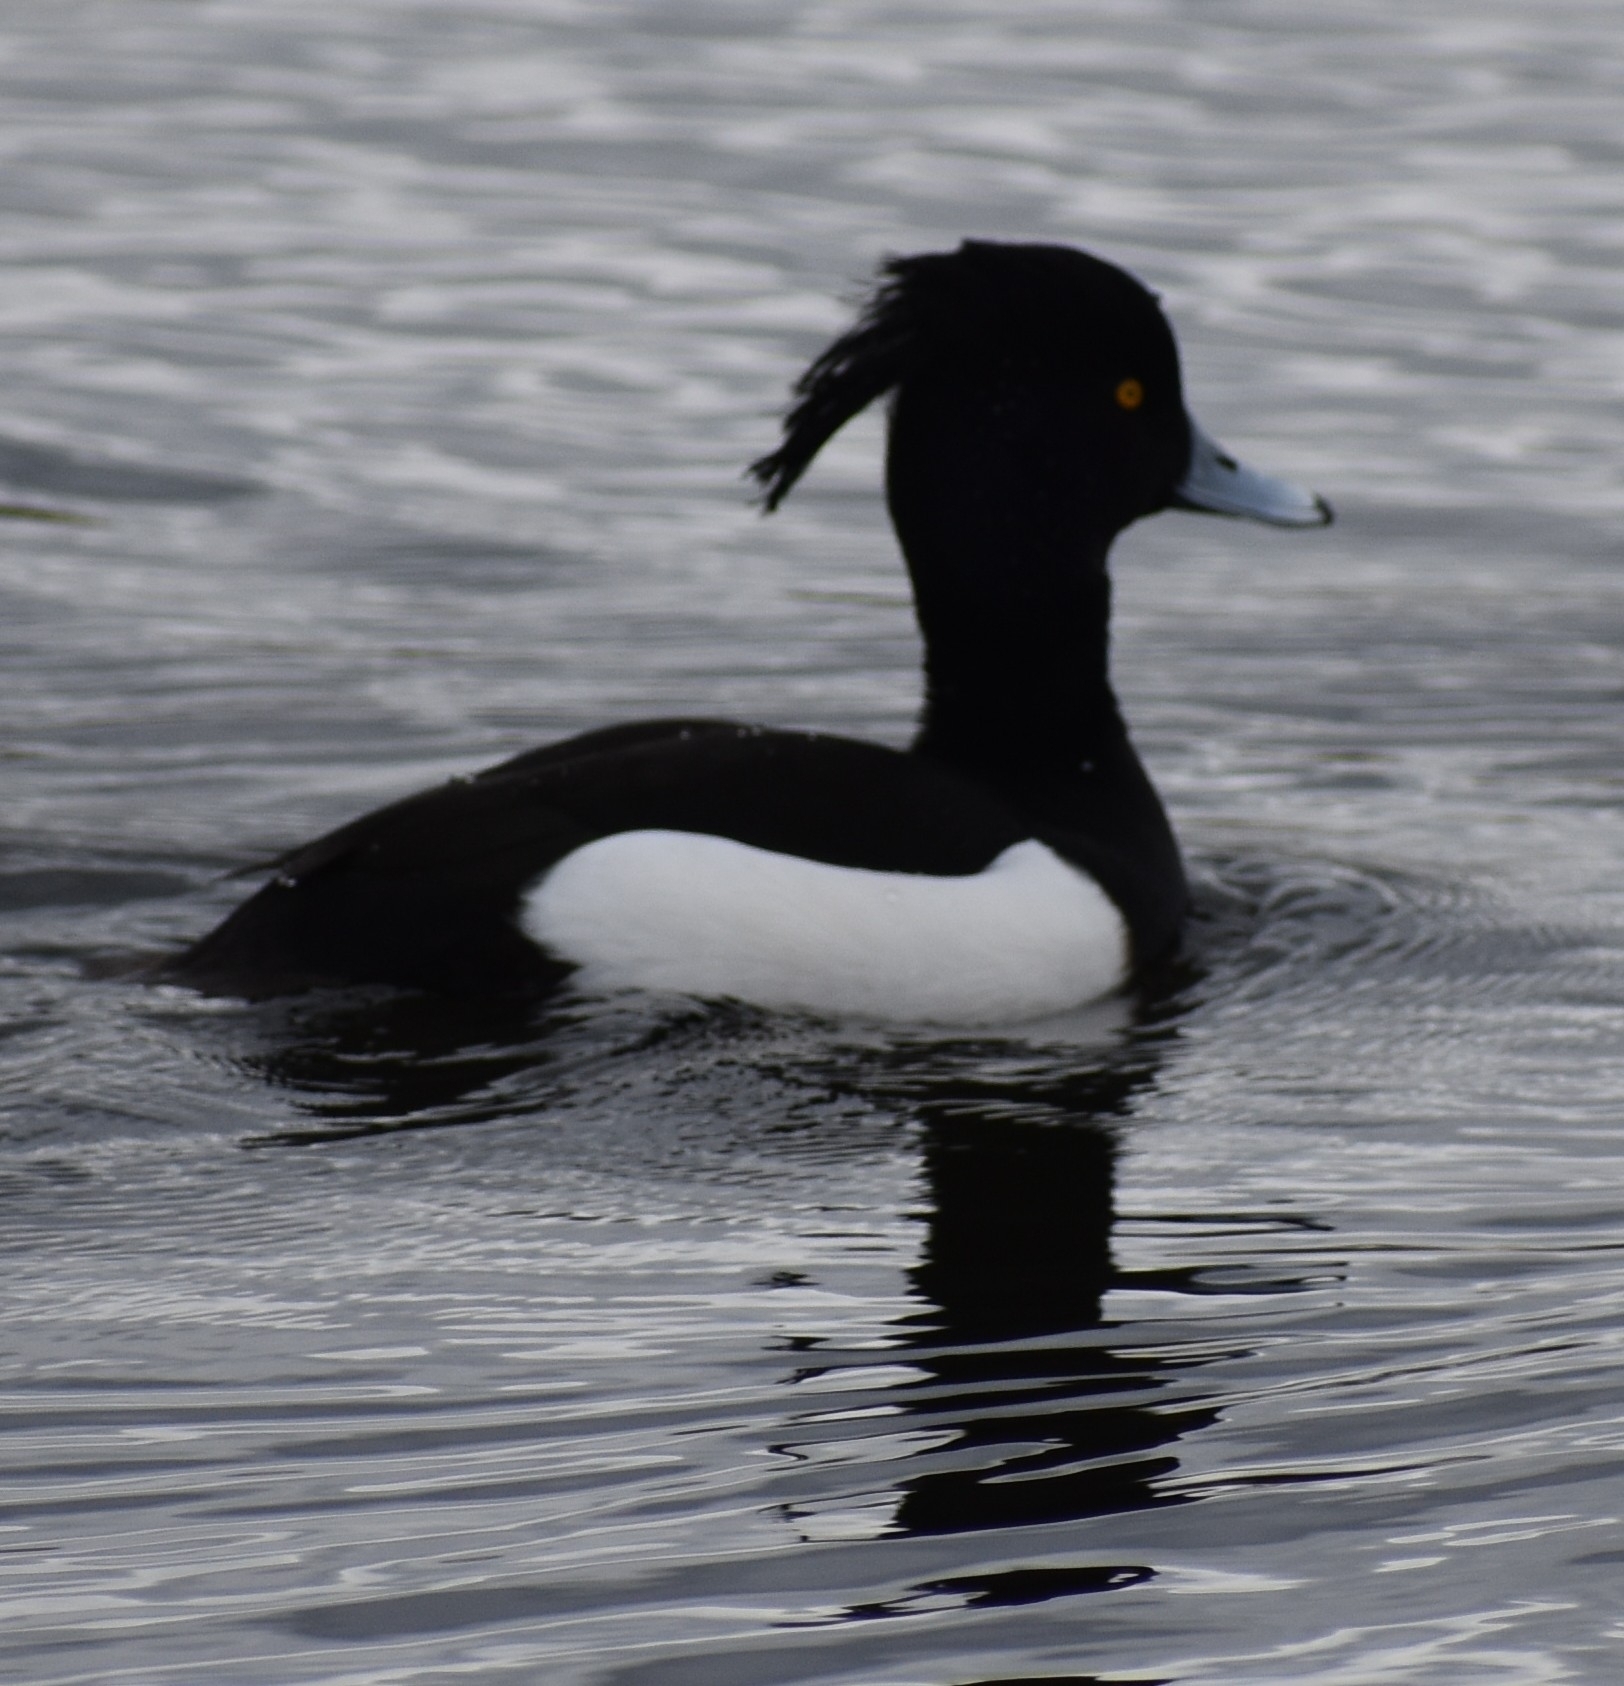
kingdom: Animalia
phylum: Chordata
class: Aves
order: Anseriformes
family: Anatidae
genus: Aythya
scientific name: Aythya fuligula
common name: Tufted duck
